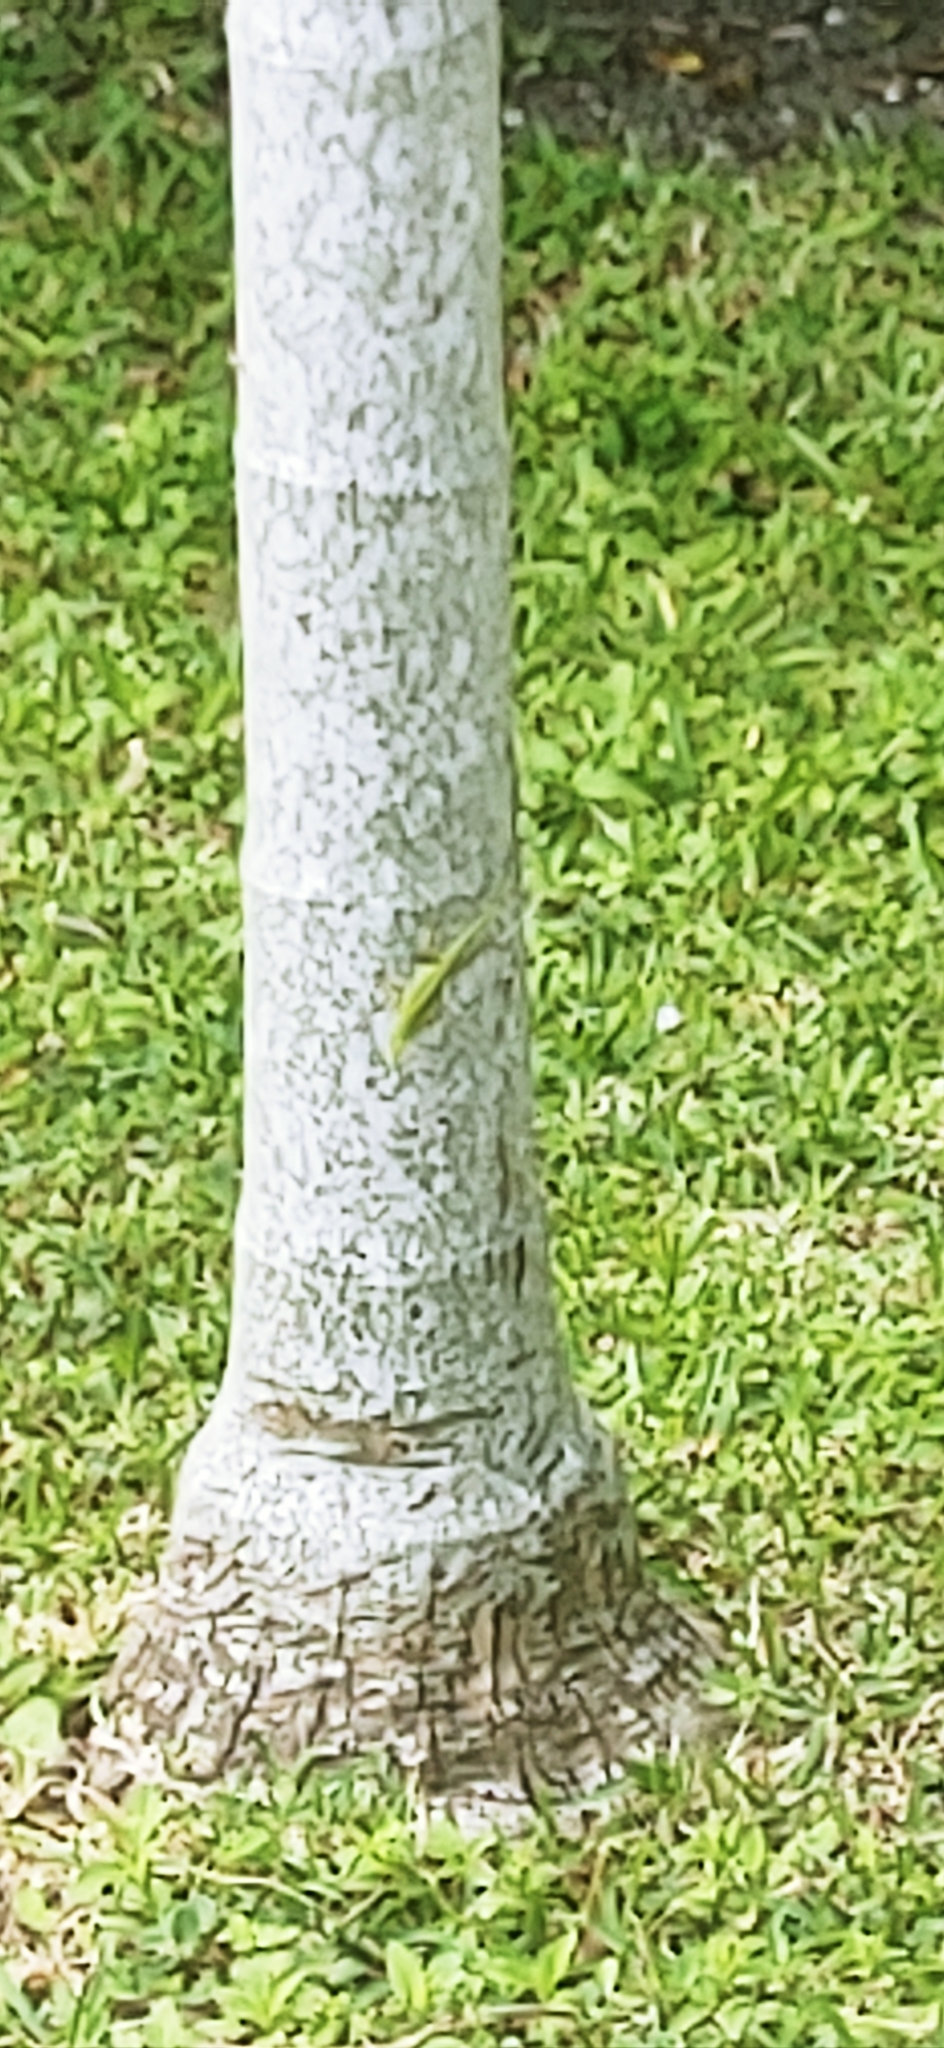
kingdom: Animalia
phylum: Chordata
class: Squamata
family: Dactyloidae
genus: Anolis
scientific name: Anolis carolinensis
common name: Green anole
